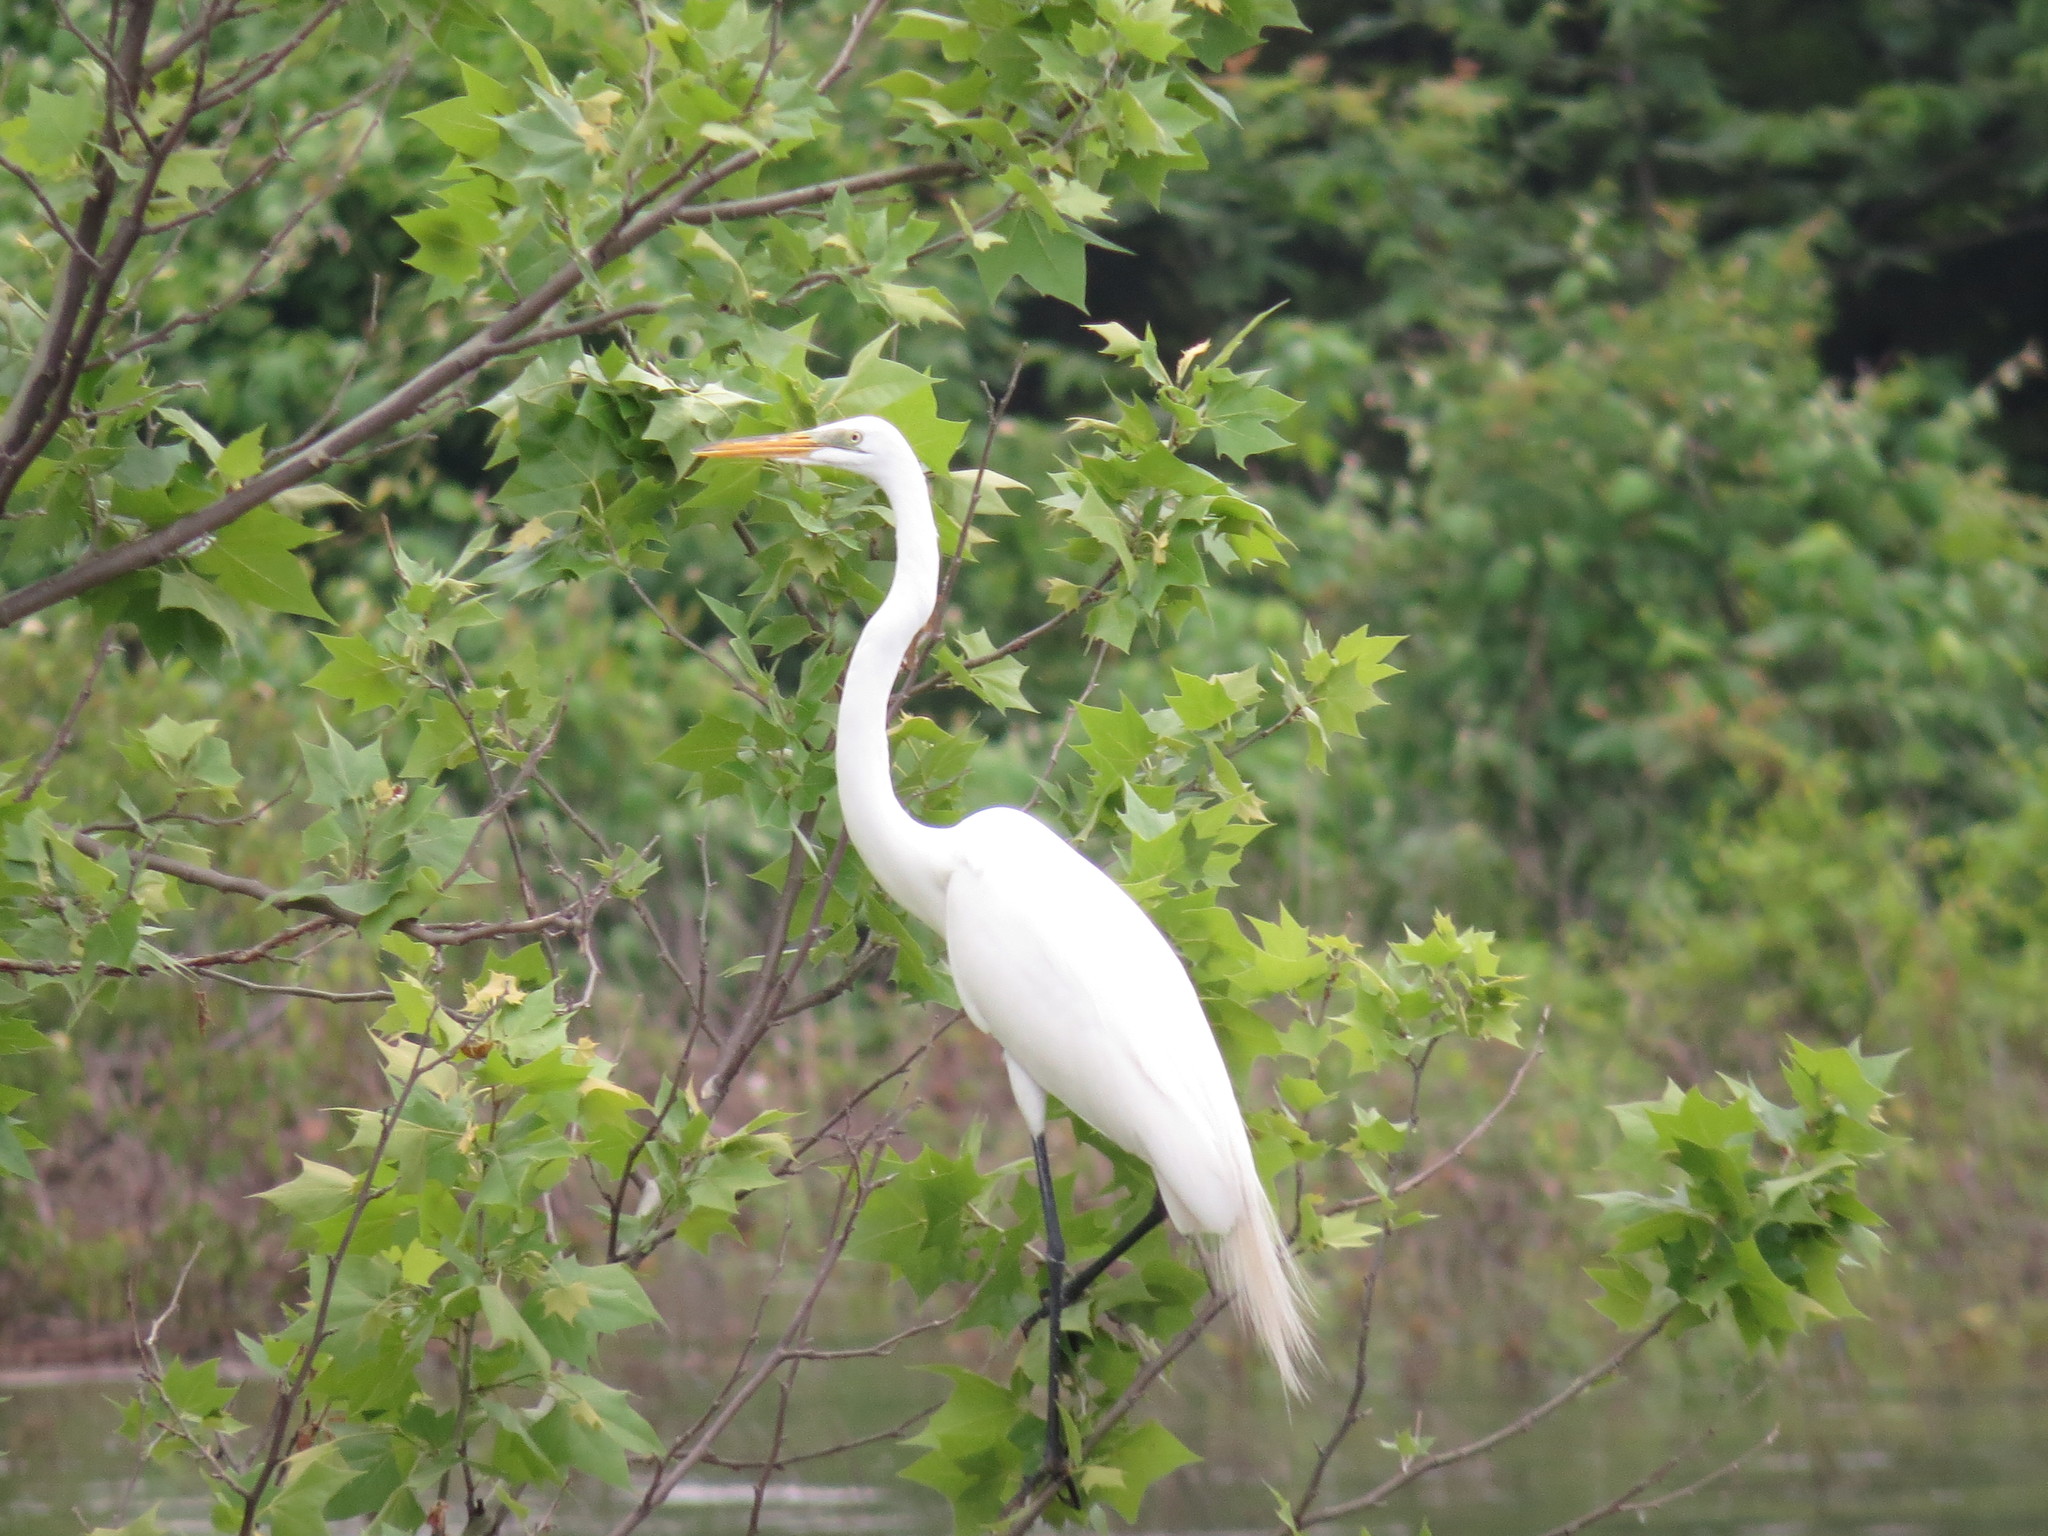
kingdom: Animalia
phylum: Chordata
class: Aves
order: Pelecaniformes
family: Ardeidae
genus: Ardea
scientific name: Ardea alba
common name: Great egret
